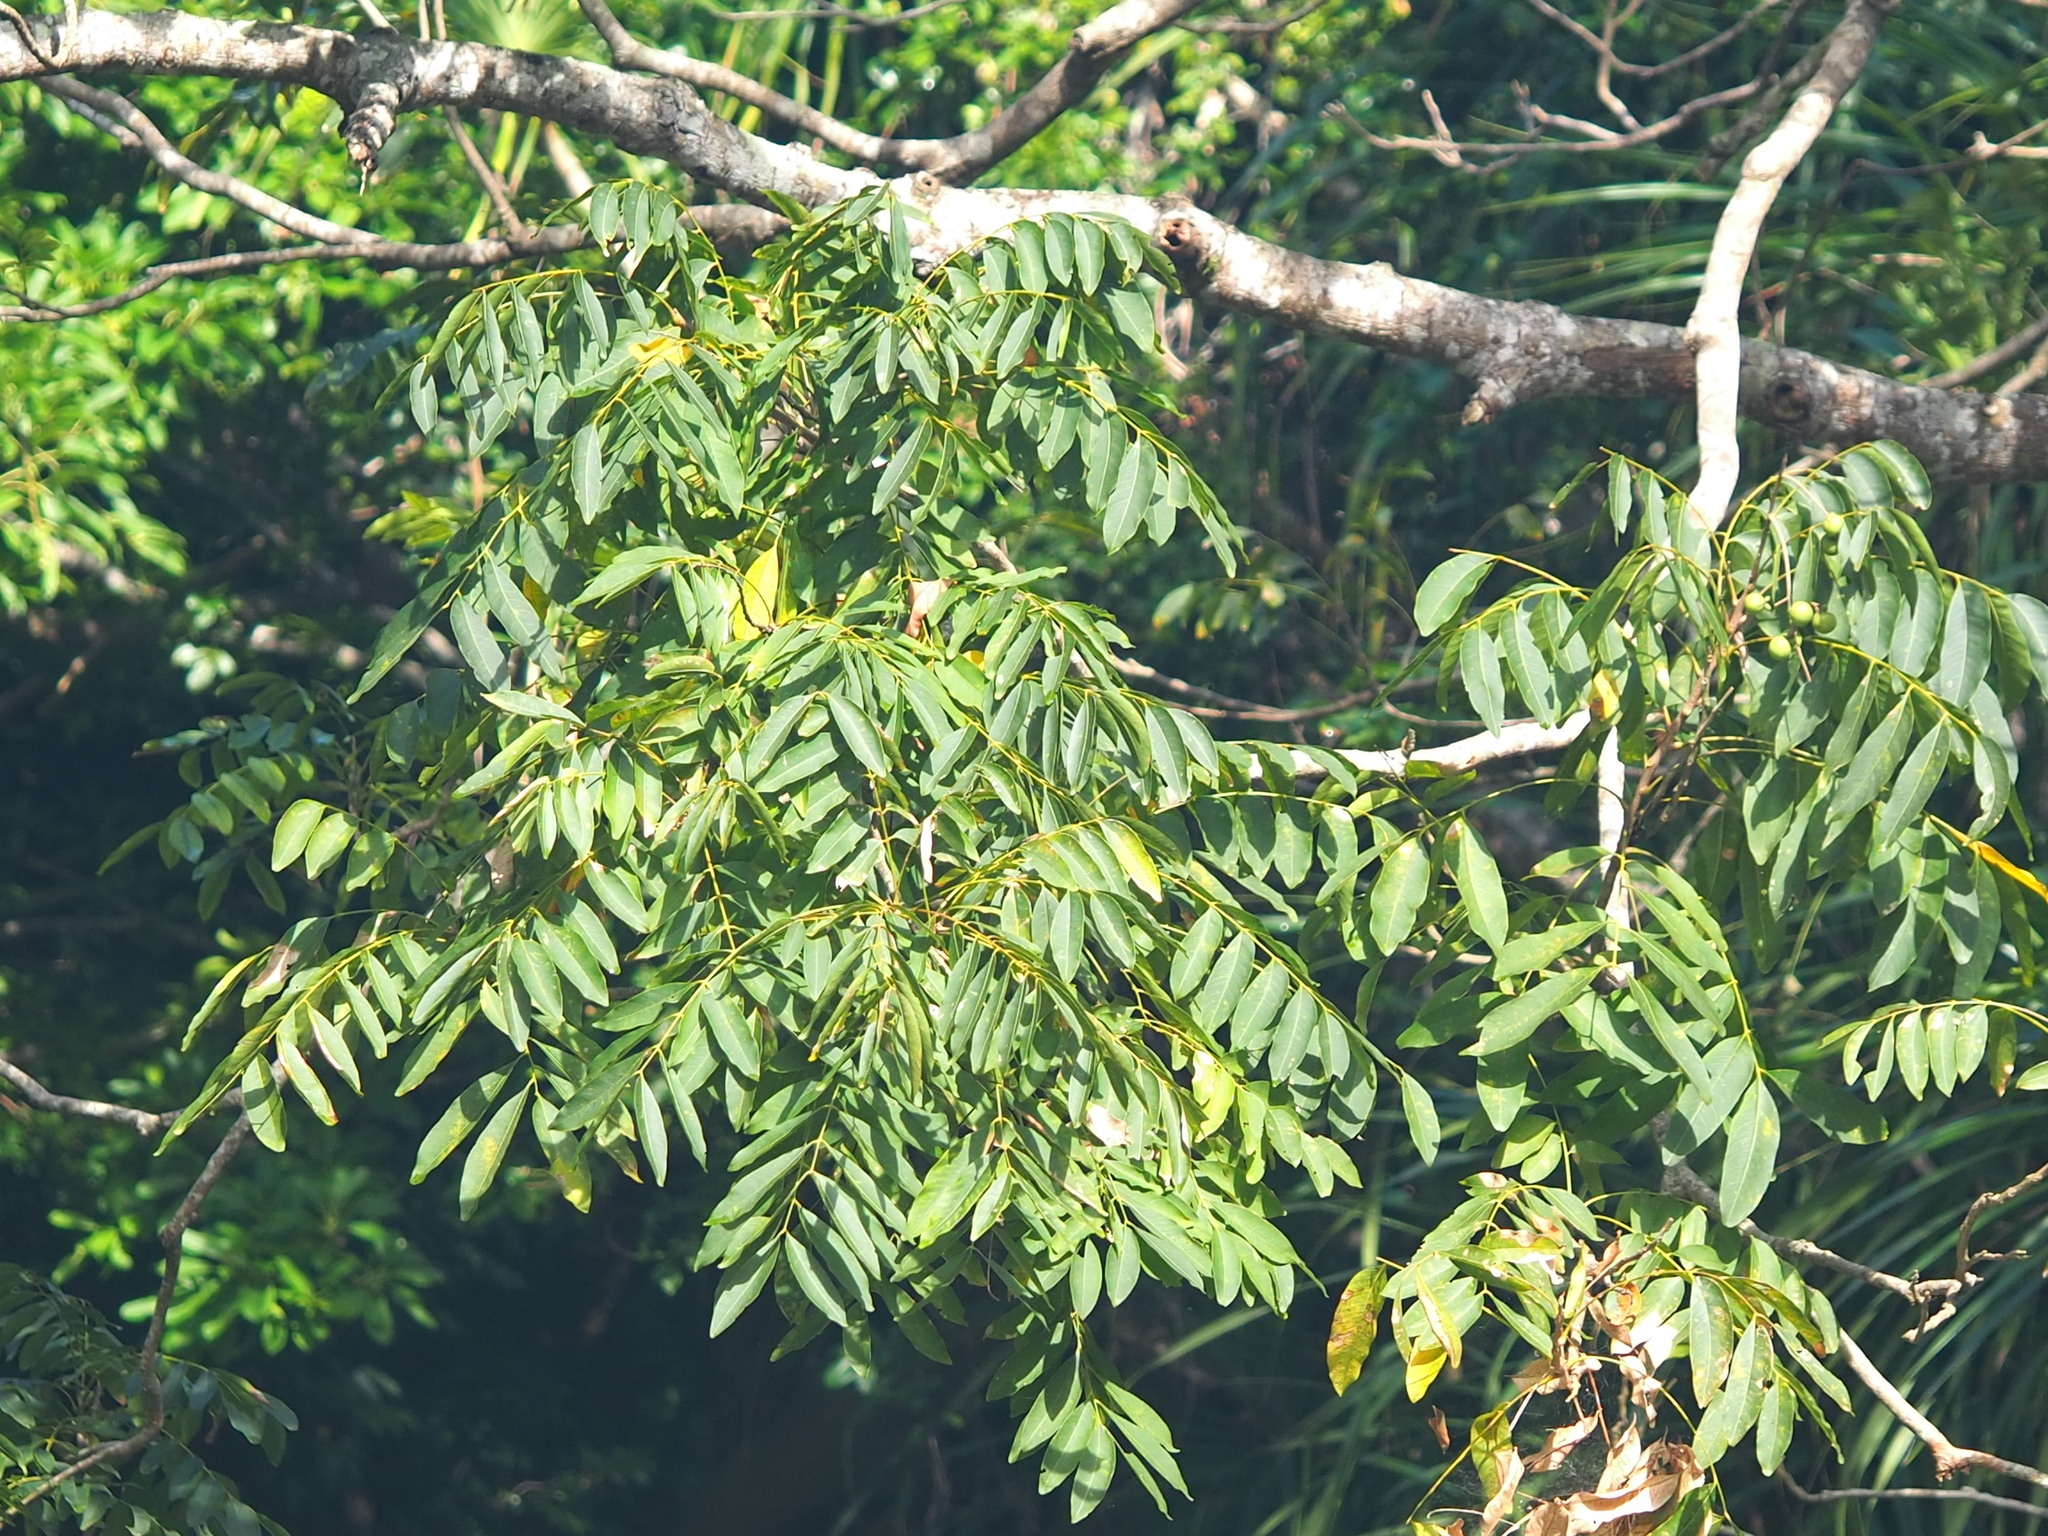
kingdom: Plantae
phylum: Tracheophyta
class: Magnoliopsida
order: Sapindales
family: Sapindaceae
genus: Sapindus
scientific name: Sapindus mukorossi
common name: Chinese soapberry
